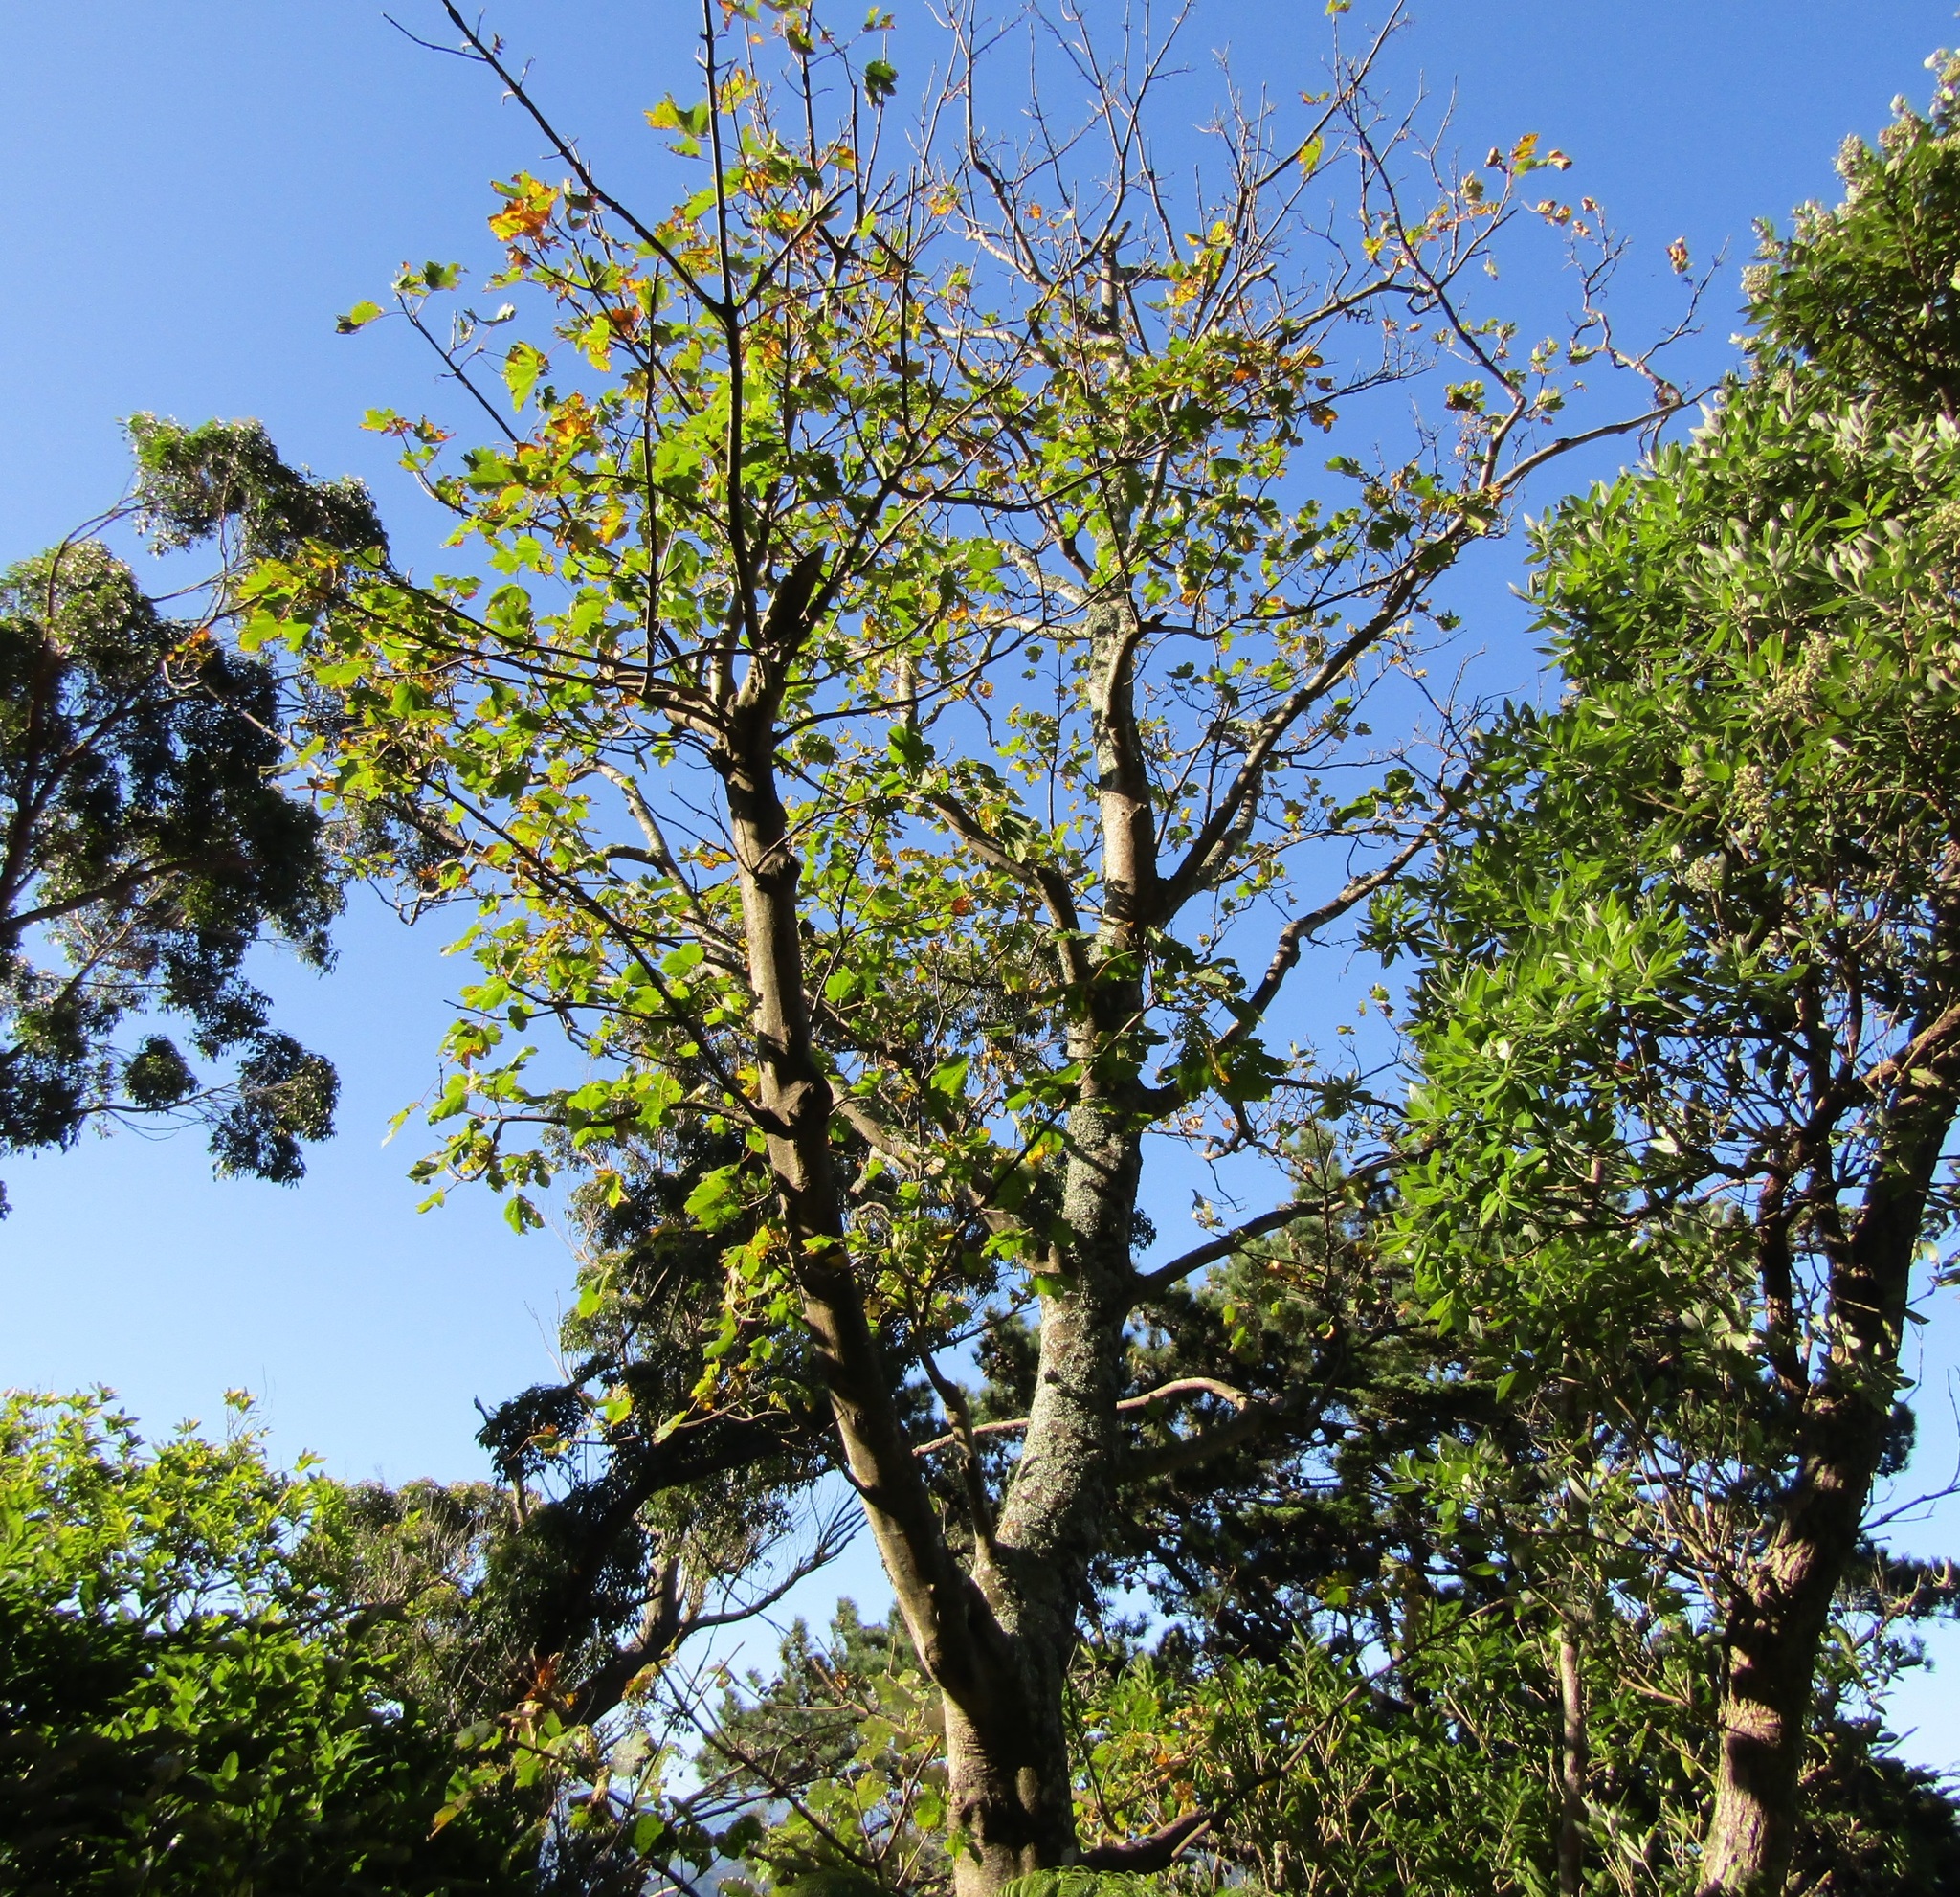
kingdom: Plantae
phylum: Tracheophyta
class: Magnoliopsida
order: Sapindales
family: Sapindaceae
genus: Acer
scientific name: Acer pseudoplatanus
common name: Sycamore
